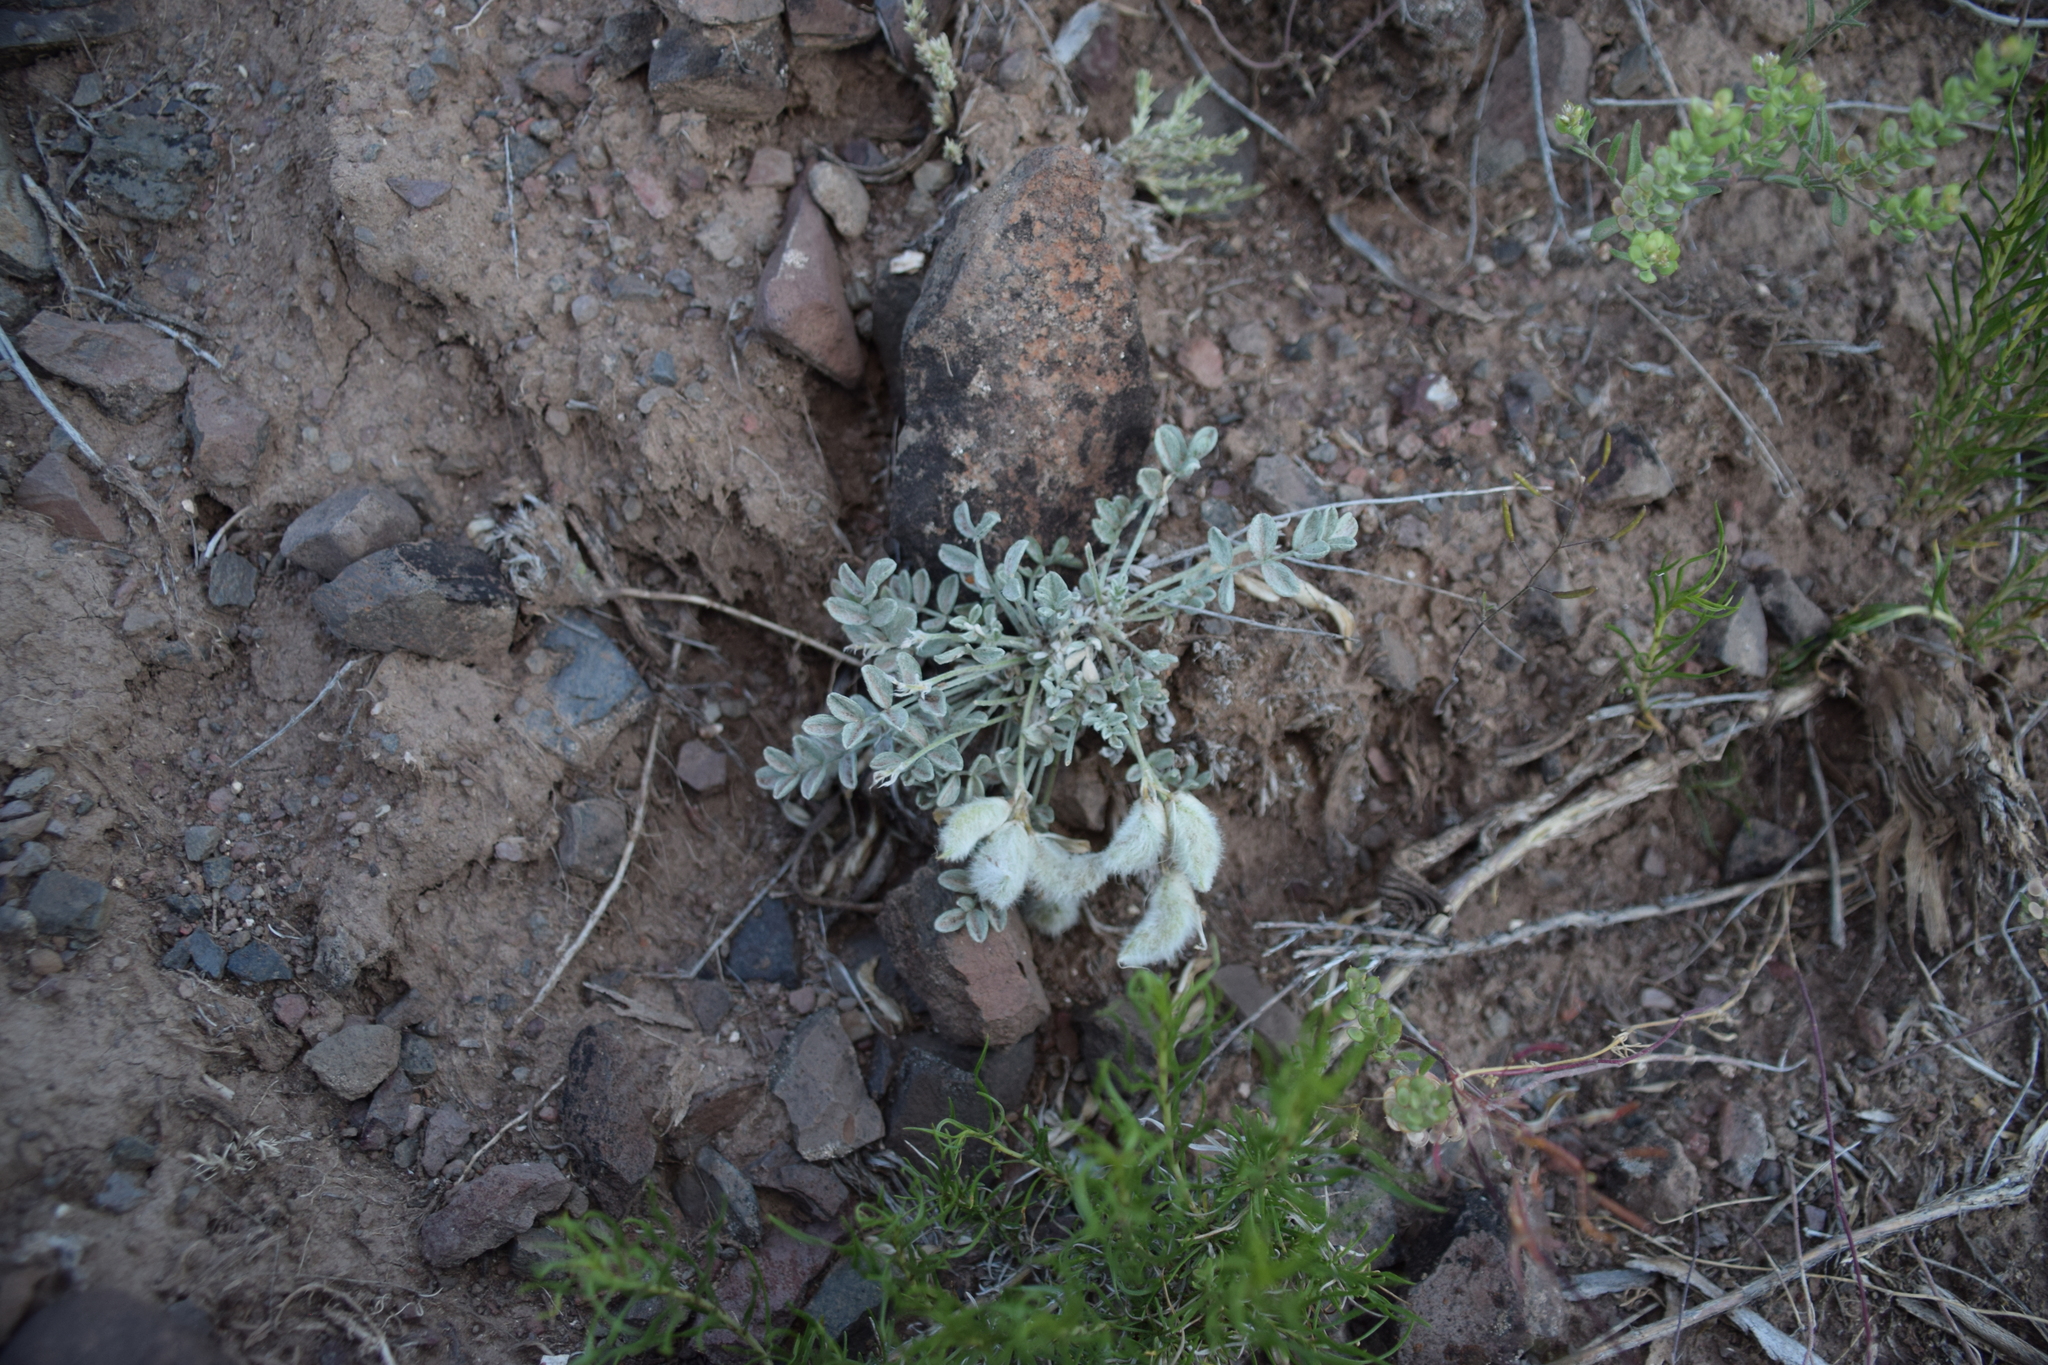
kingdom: Plantae
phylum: Tracheophyta
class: Magnoliopsida
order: Fabales
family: Fabaceae
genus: Astragalus
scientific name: Astragalus purshii
